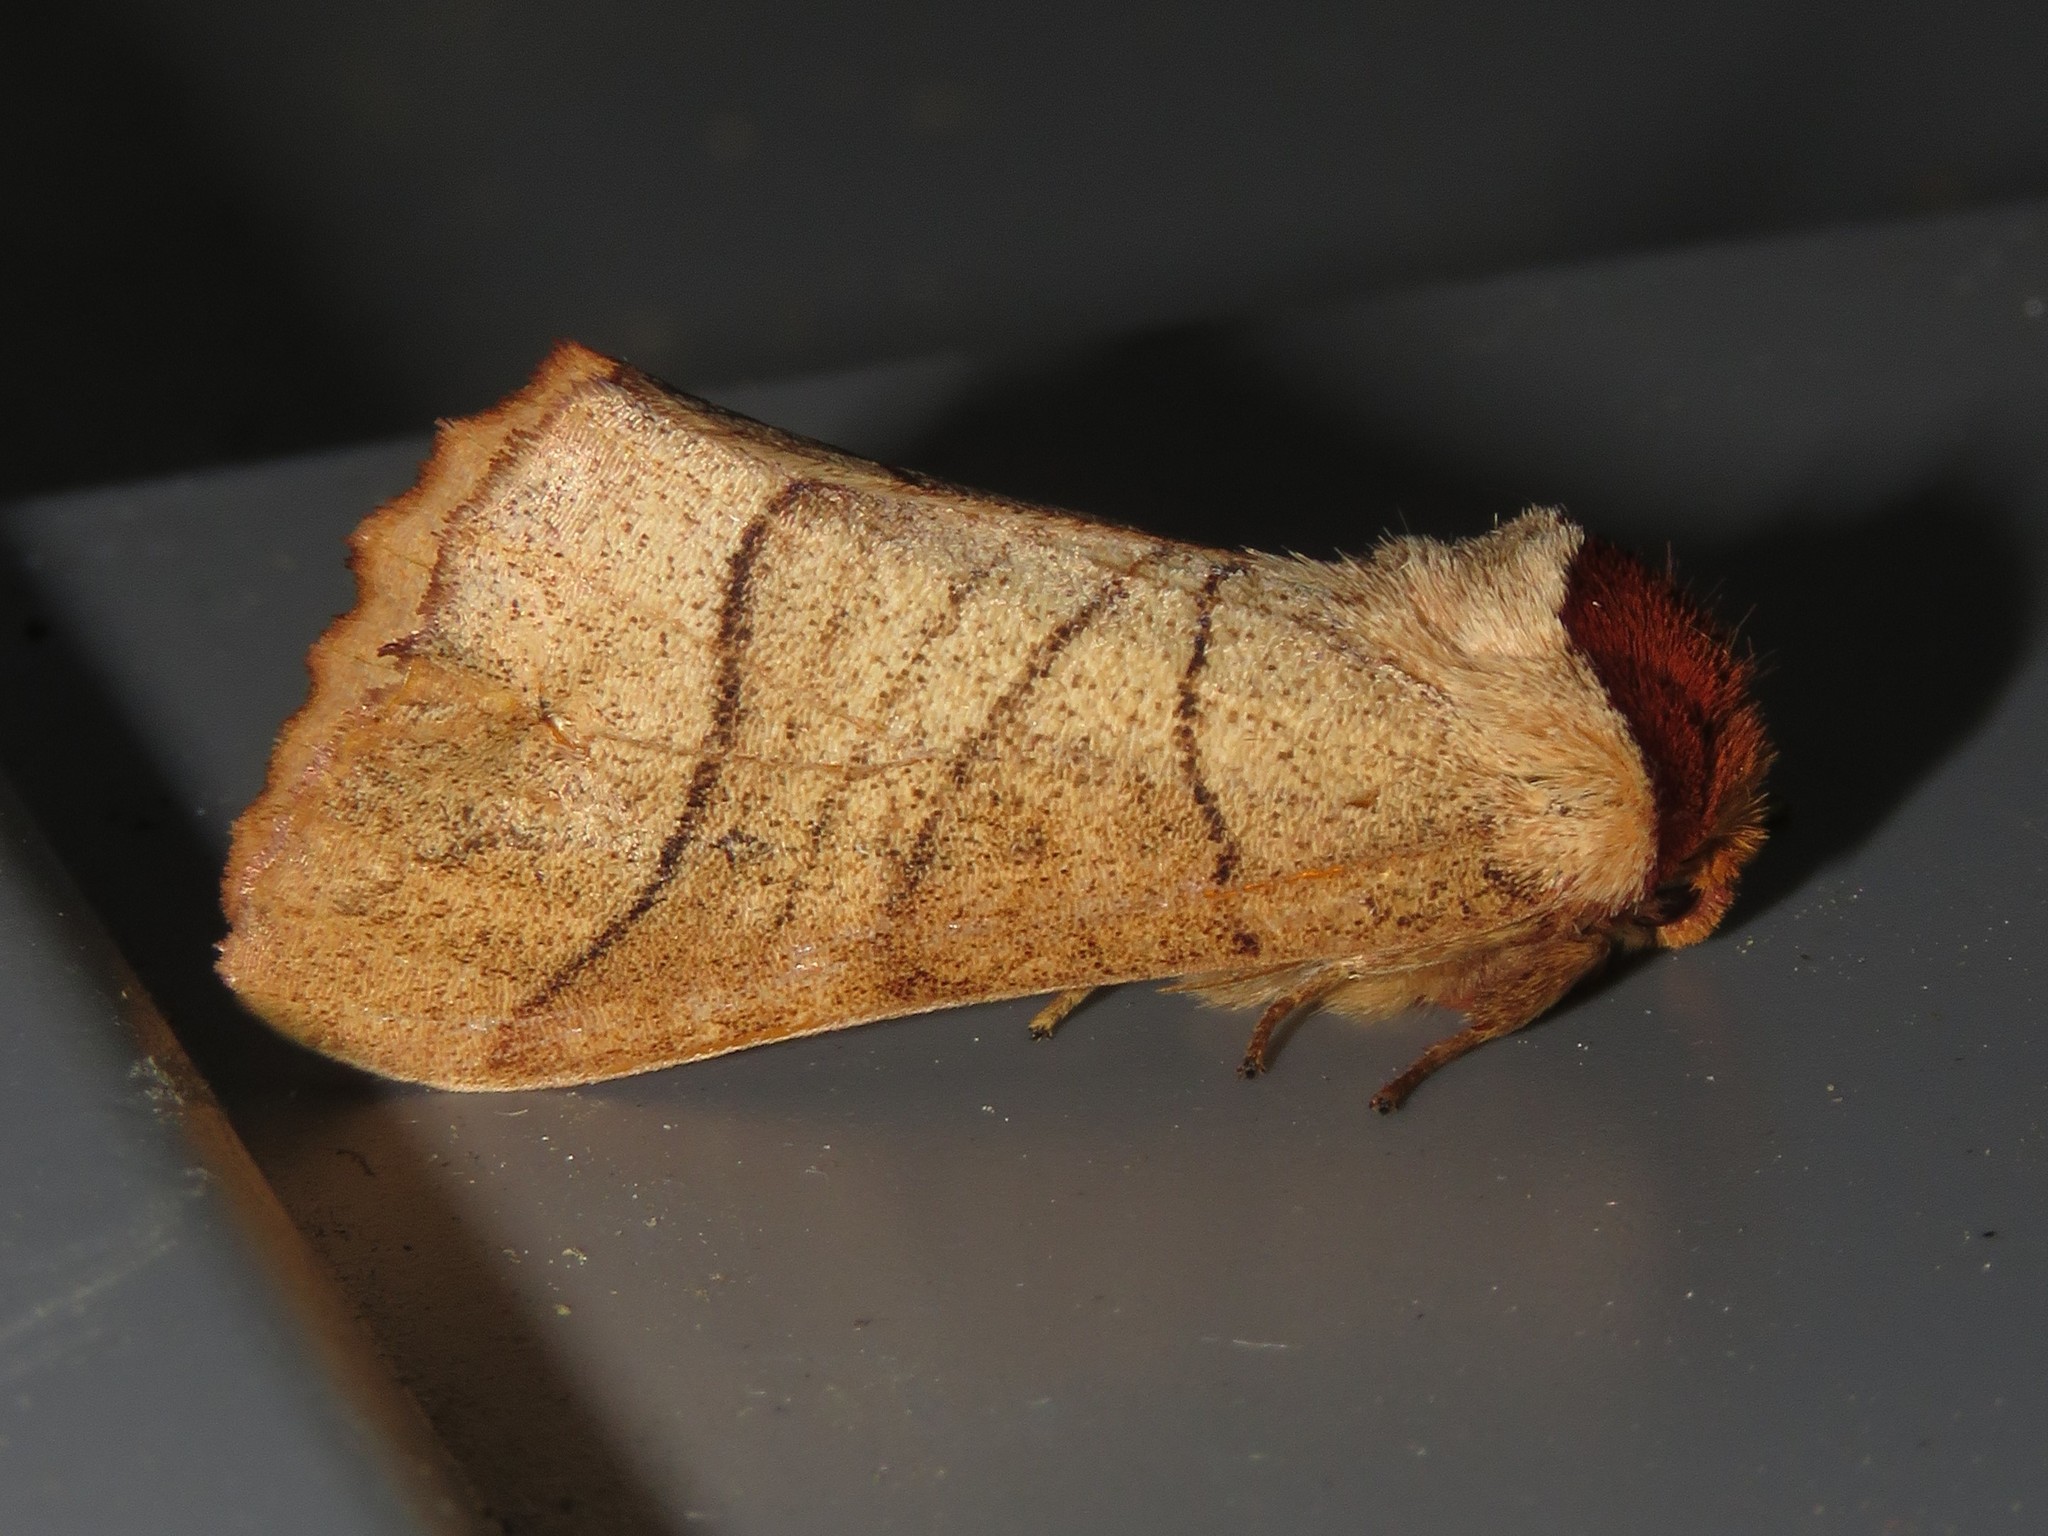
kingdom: Animalia
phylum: Arthropoda
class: Insecta
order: Lepidoptera
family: Notodontidae
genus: Datana
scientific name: Datana ministra
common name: Yellow-necked caterpillar moth
